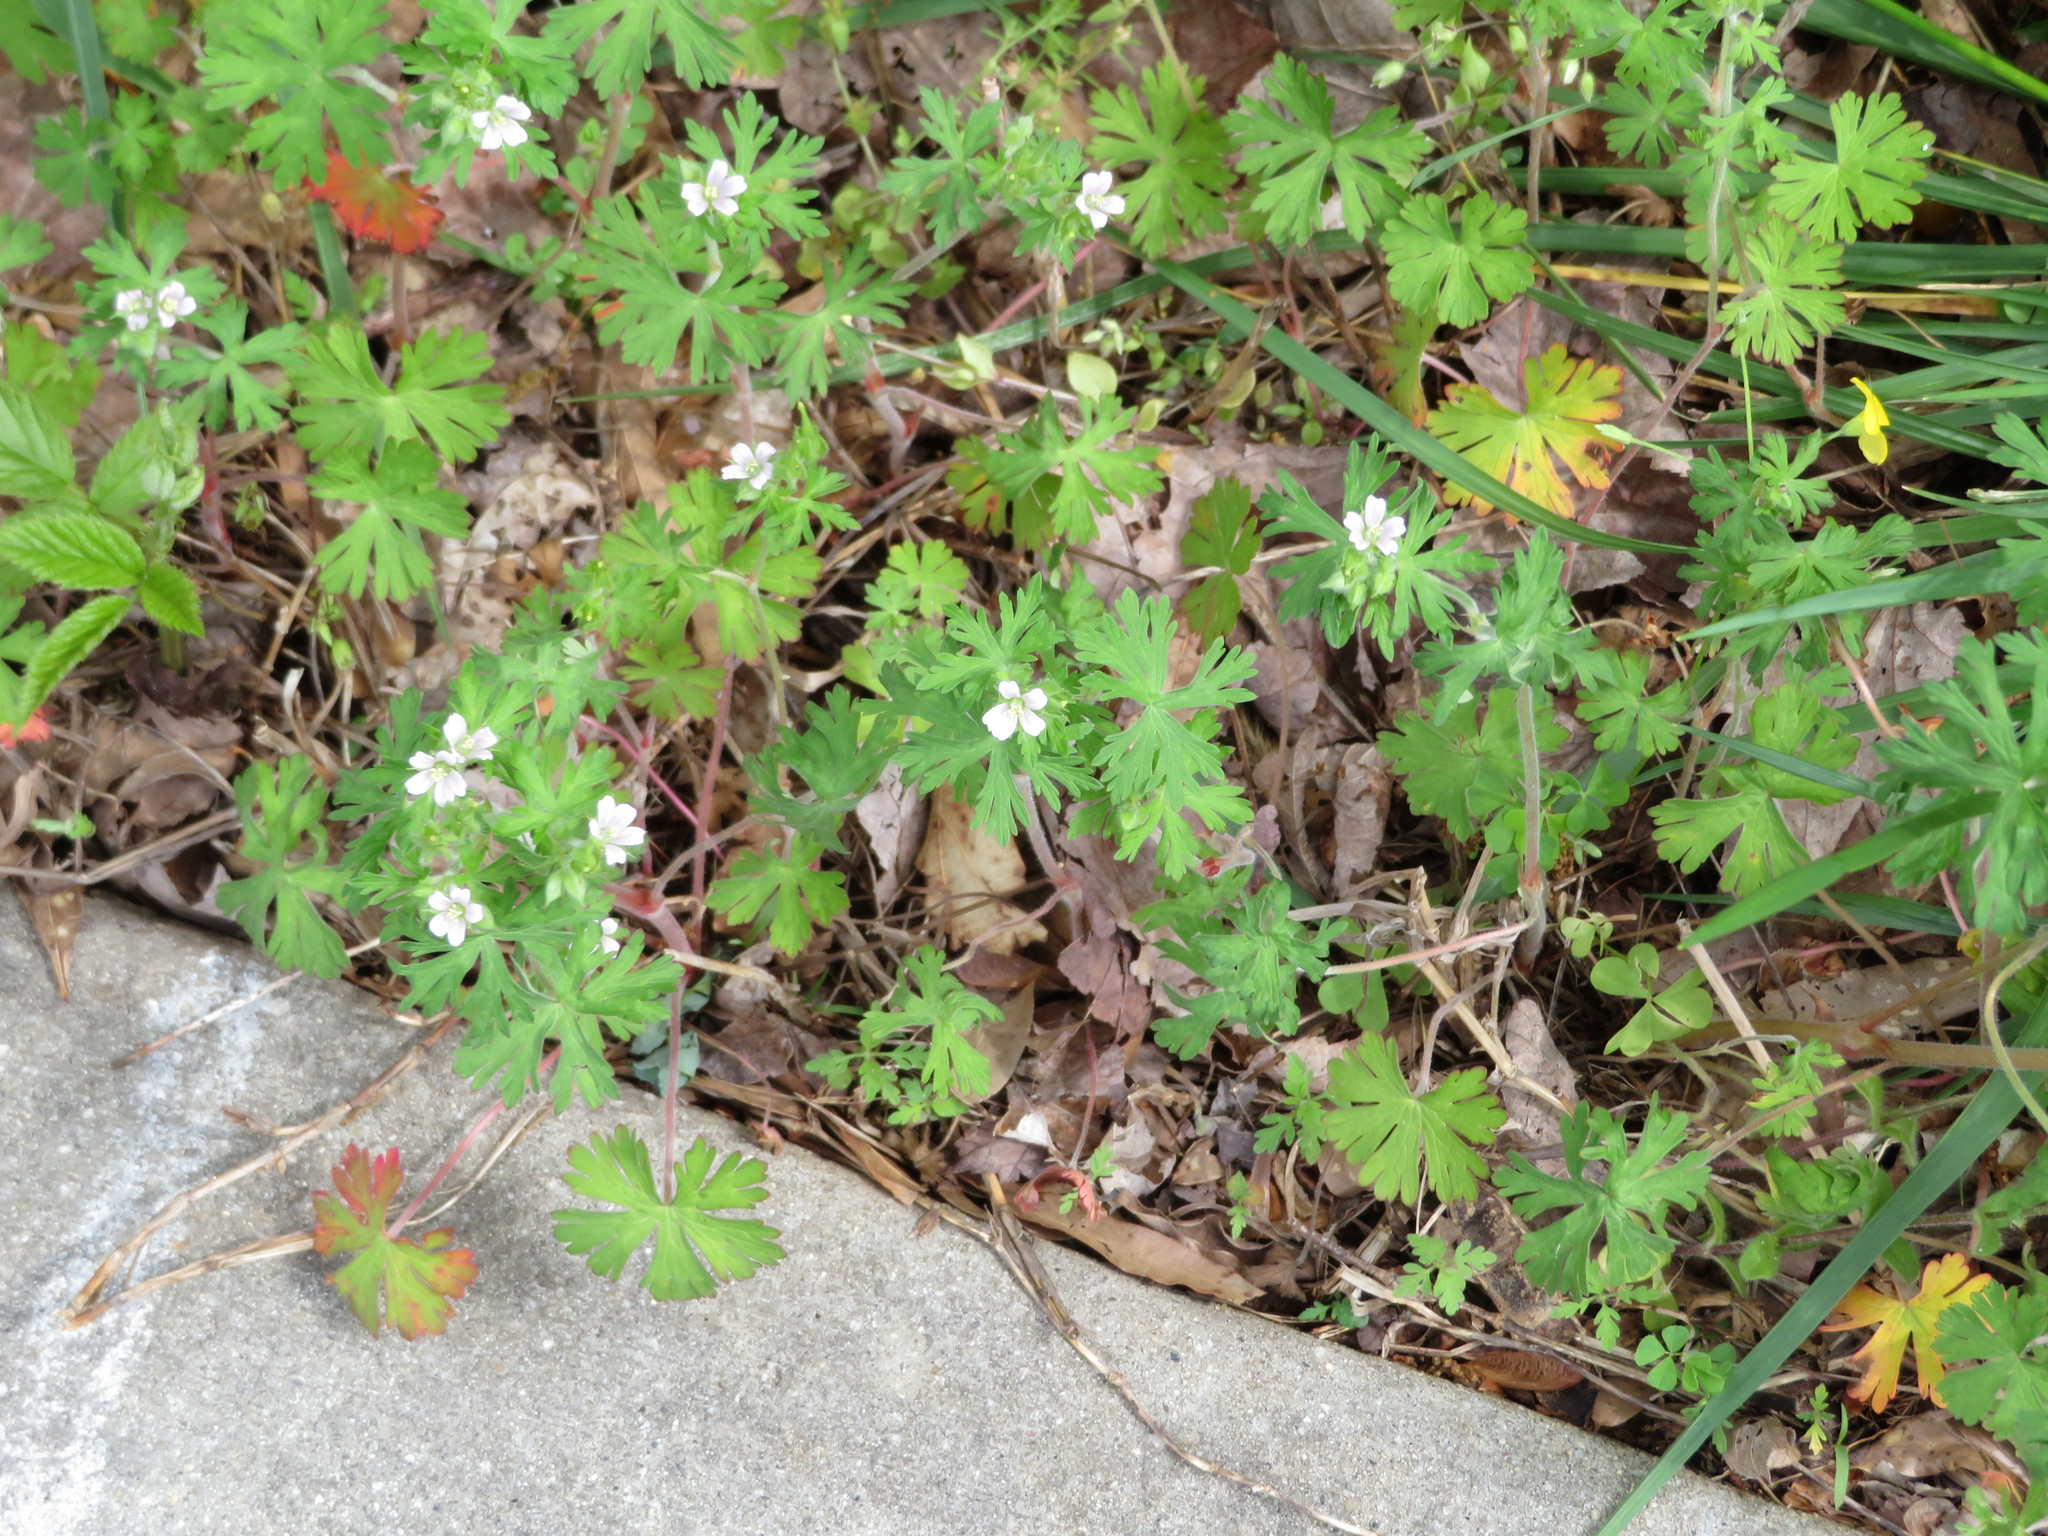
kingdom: Plantae
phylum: Tracheophyta
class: Magnoliopsida
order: Geraniales
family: Geraniaceae
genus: Geranium
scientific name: Geranium carolinianum
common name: Carolina crane's-bill
